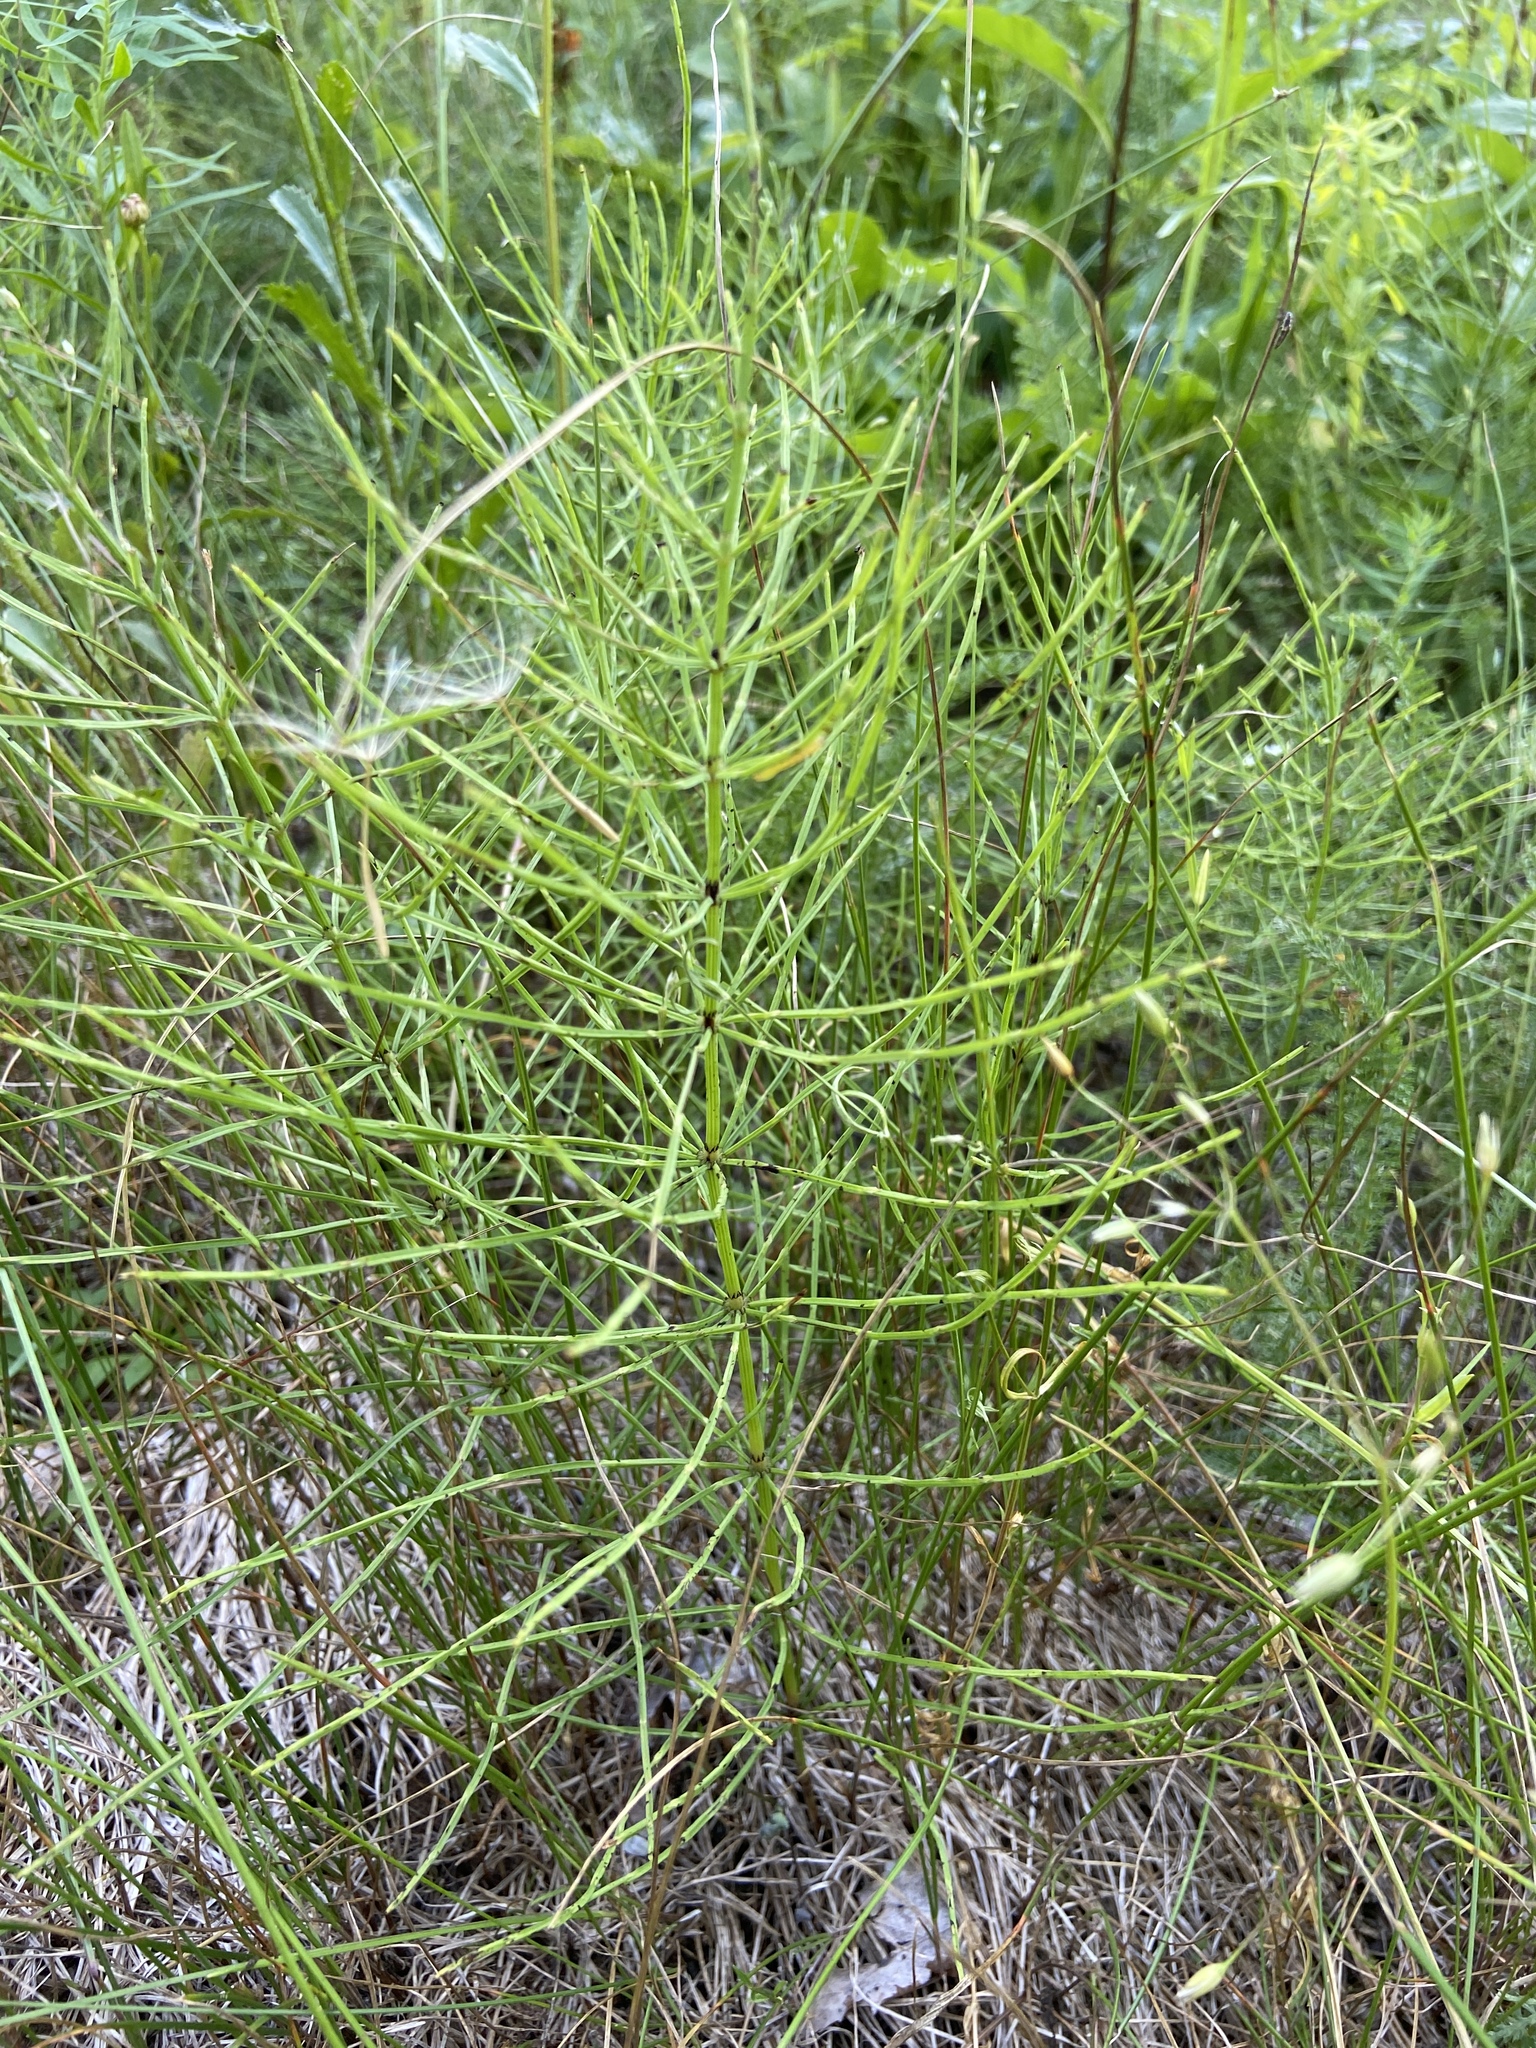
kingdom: Plantae
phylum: Tracheophyta
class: Polypodiopsida
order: Equisetales
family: Equisetaceae
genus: Equisetum
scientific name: Equisetum arvense
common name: Field horsetail
